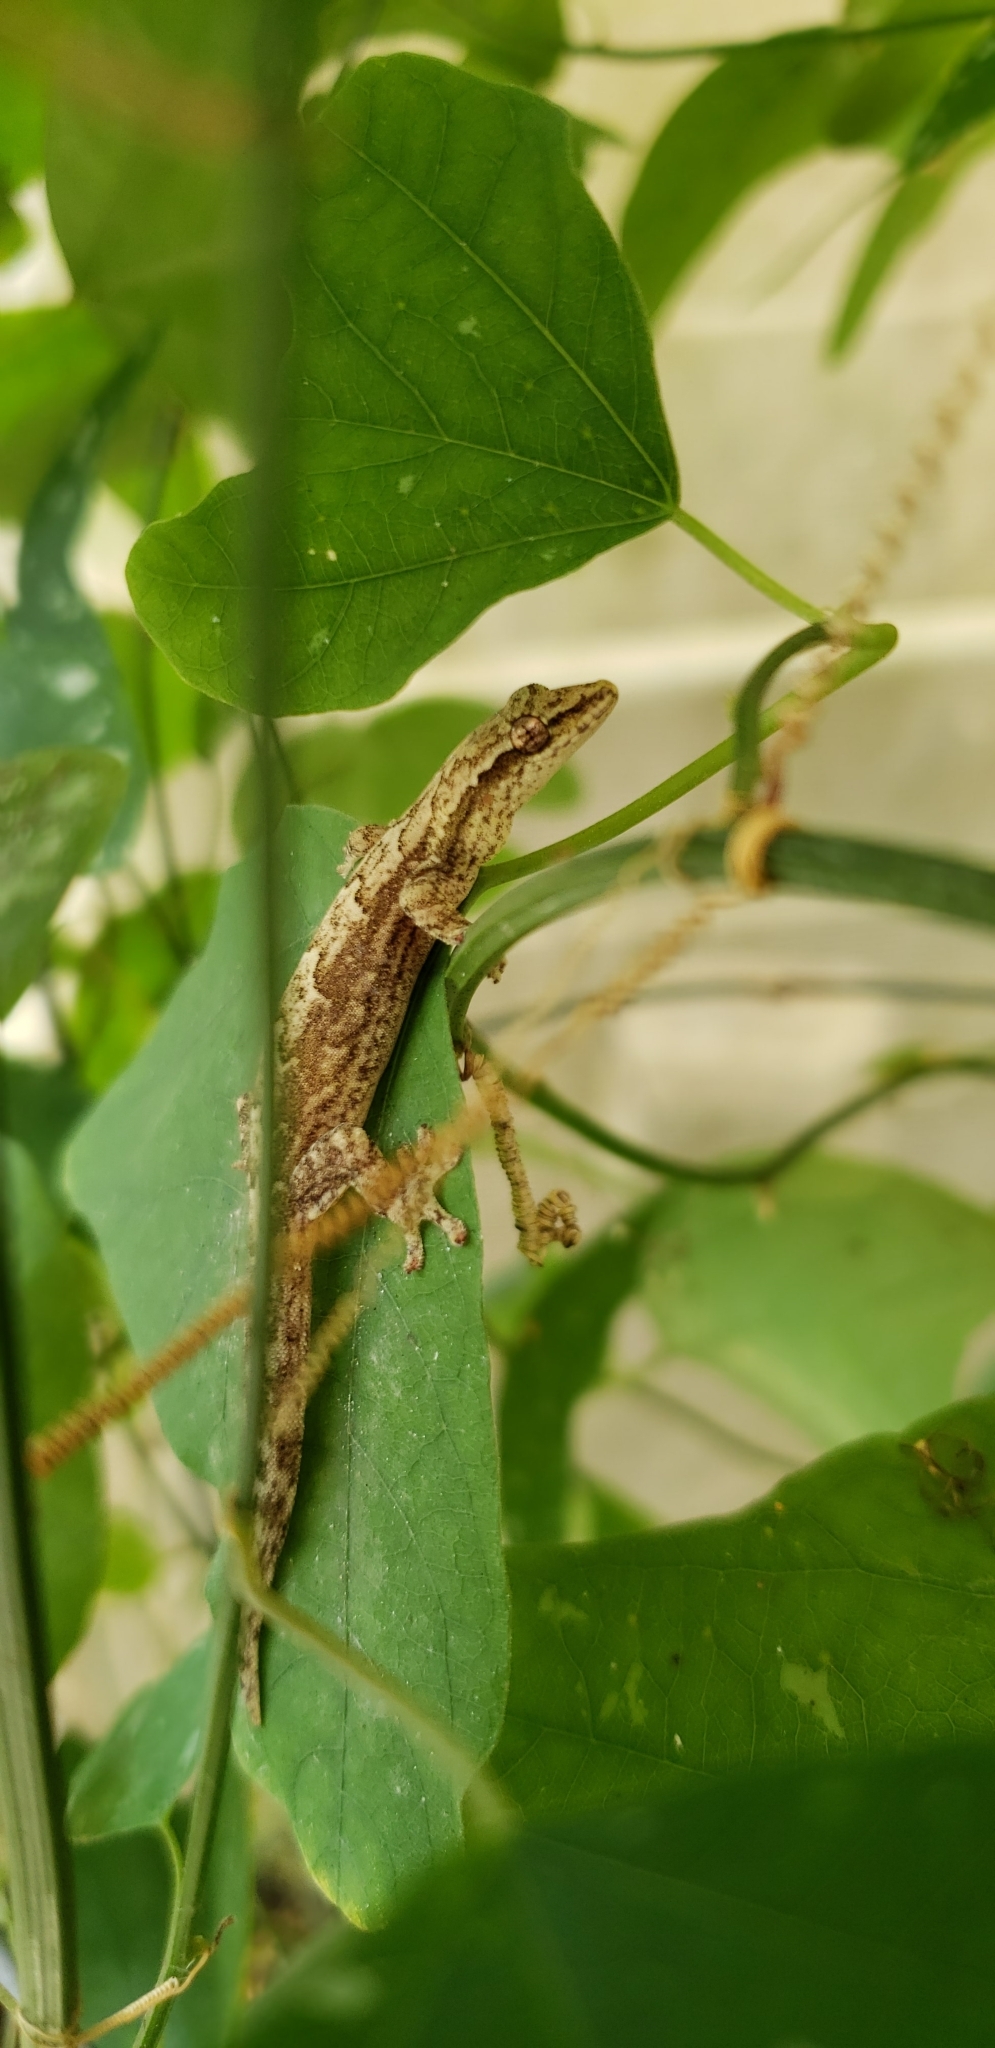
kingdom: Animalia
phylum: Chordata
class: Squamata
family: Gekkonidae
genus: Lepidodactylus
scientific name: Lepidodactylus lugubris
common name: Mourning gecko
